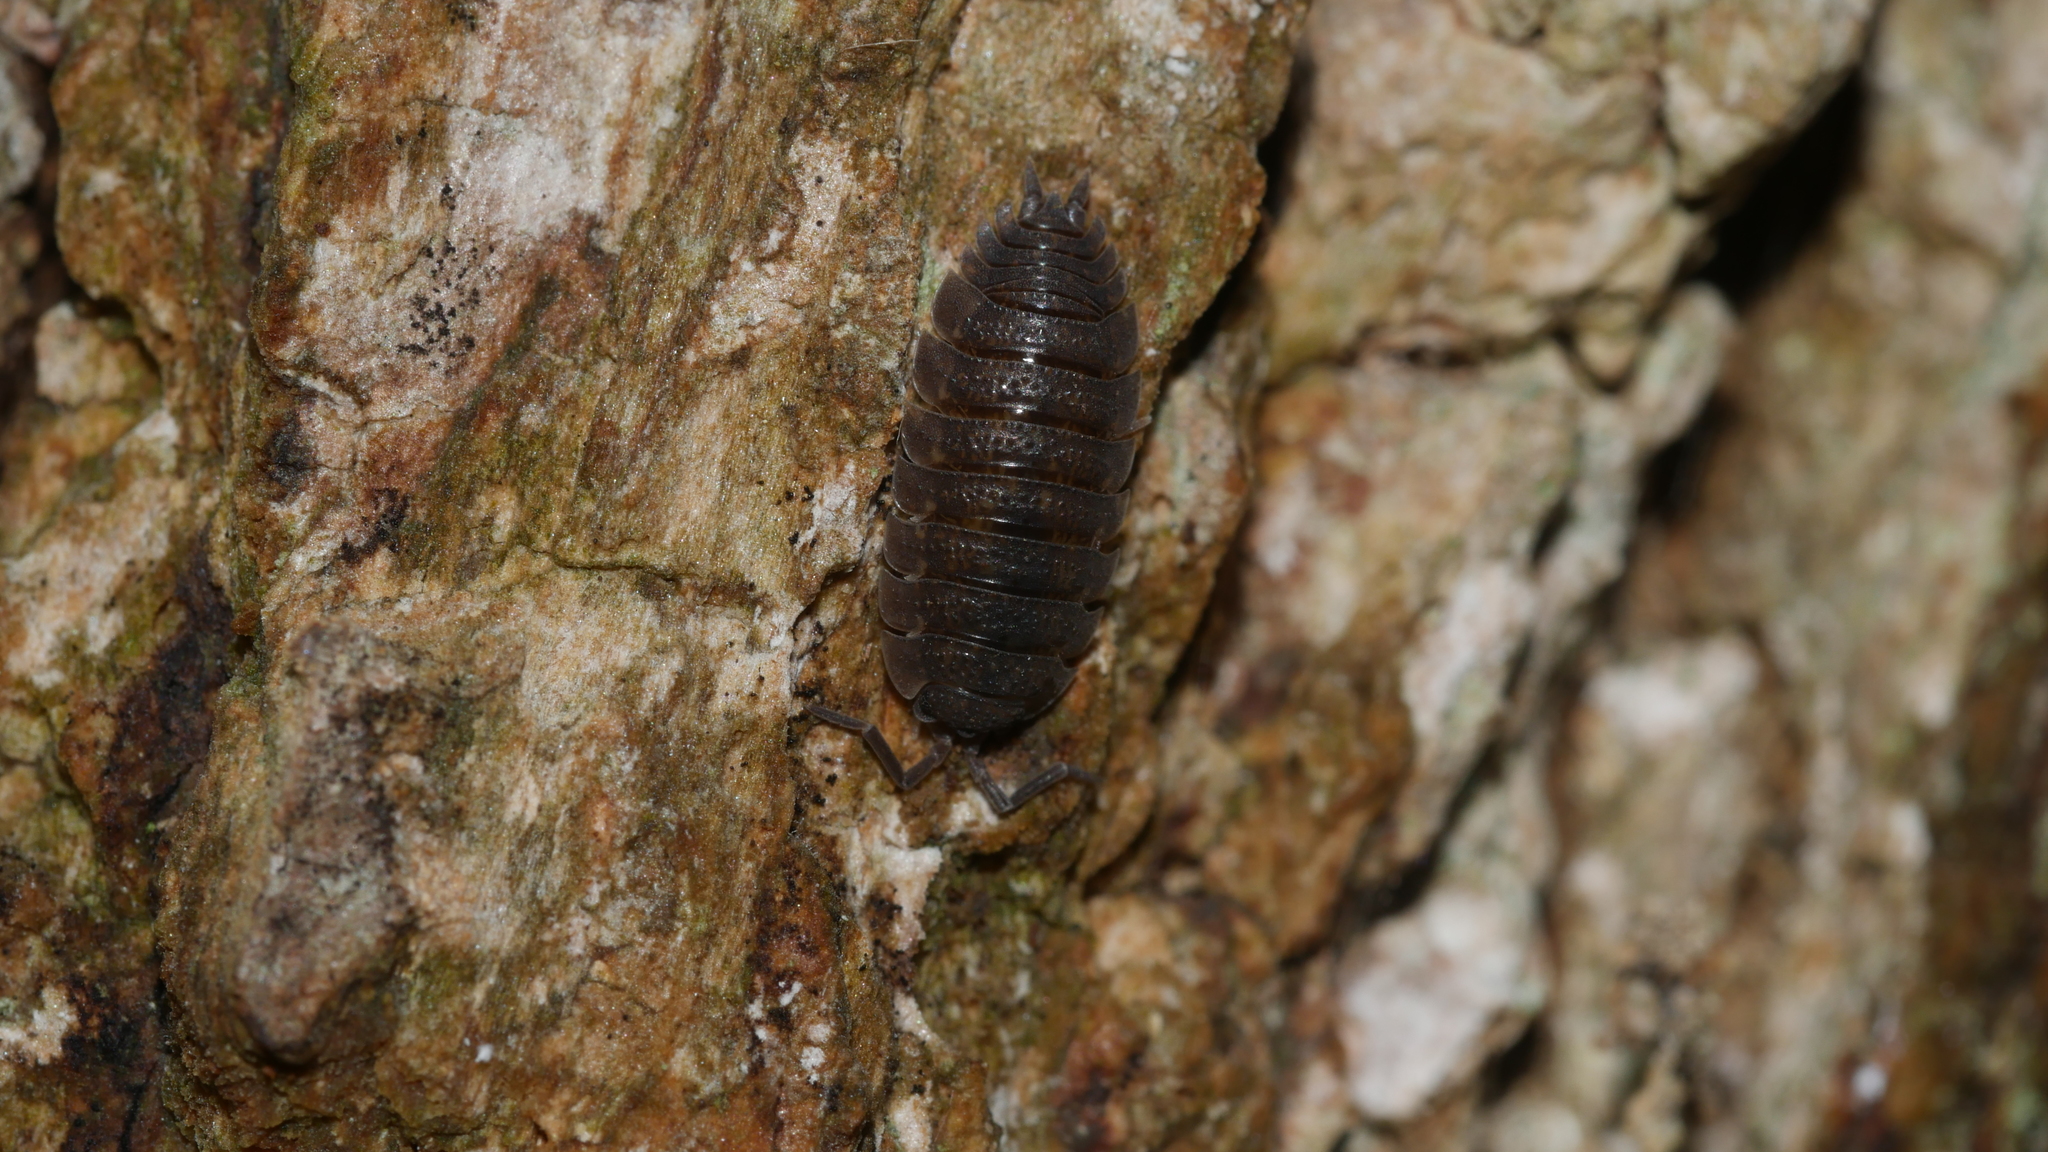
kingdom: Animalia
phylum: Arthropoda
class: Malacostraca
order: Isopoda
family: Porcellionidae
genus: Porcellio
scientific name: Porcellio scaber
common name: Common rough woodlouse
